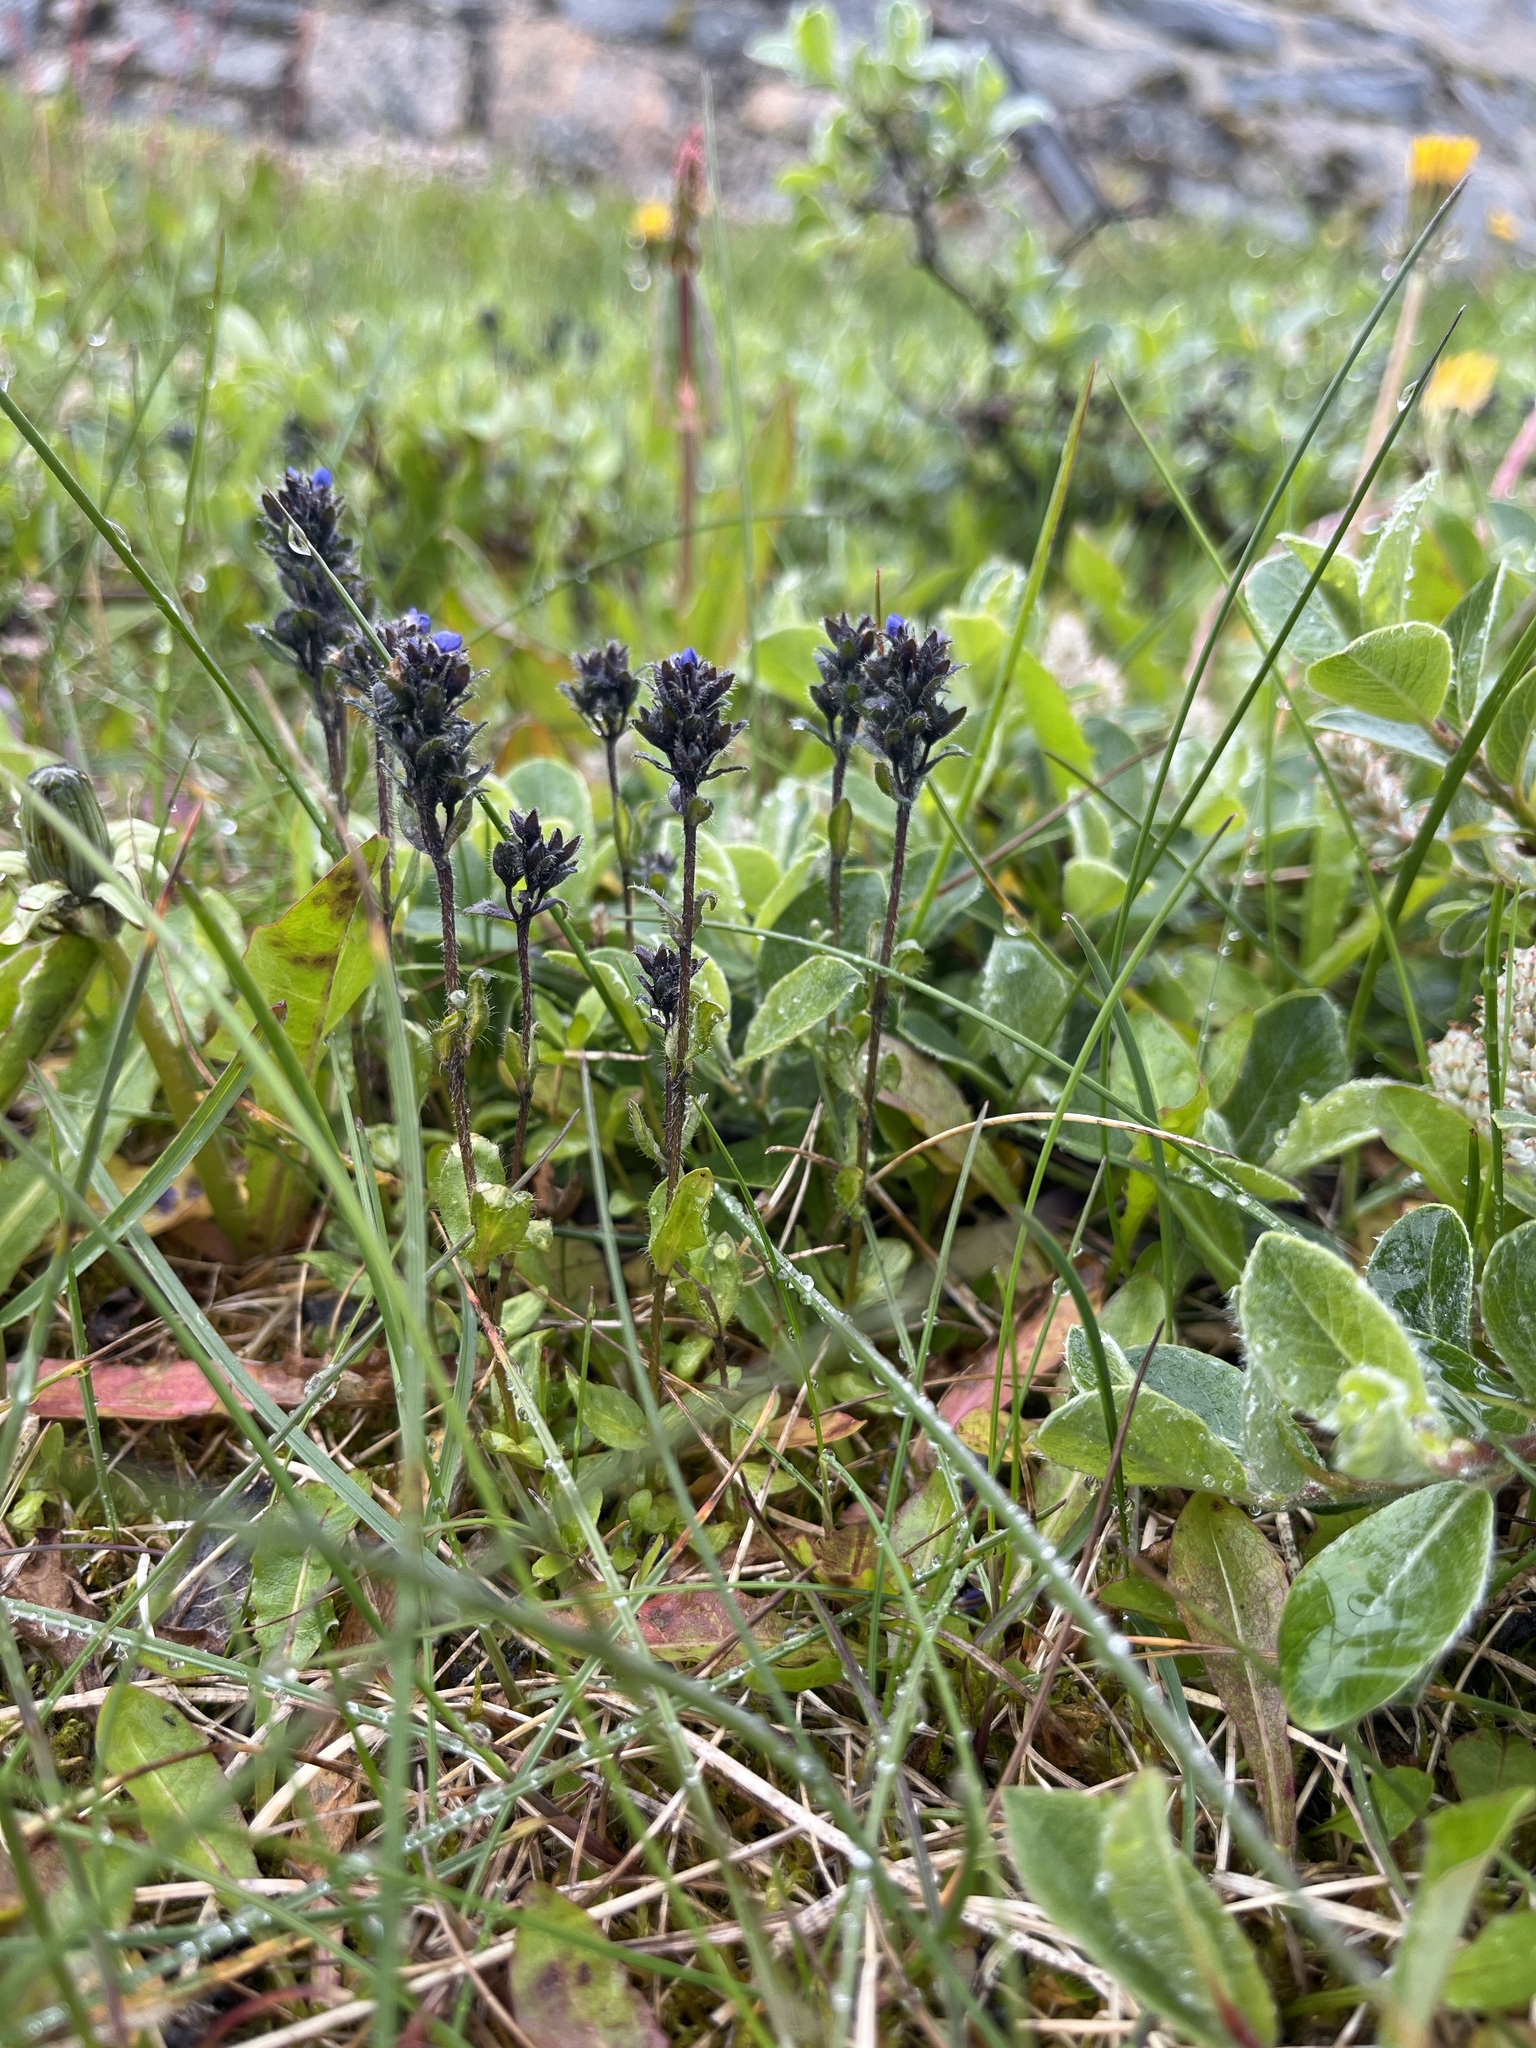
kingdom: Plantae
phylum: Tracheophyta
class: Magnoliopsida
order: Lamiales
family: Plantaginaceae
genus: Veronica
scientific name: Veronica alpina
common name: Alpine speedwell
